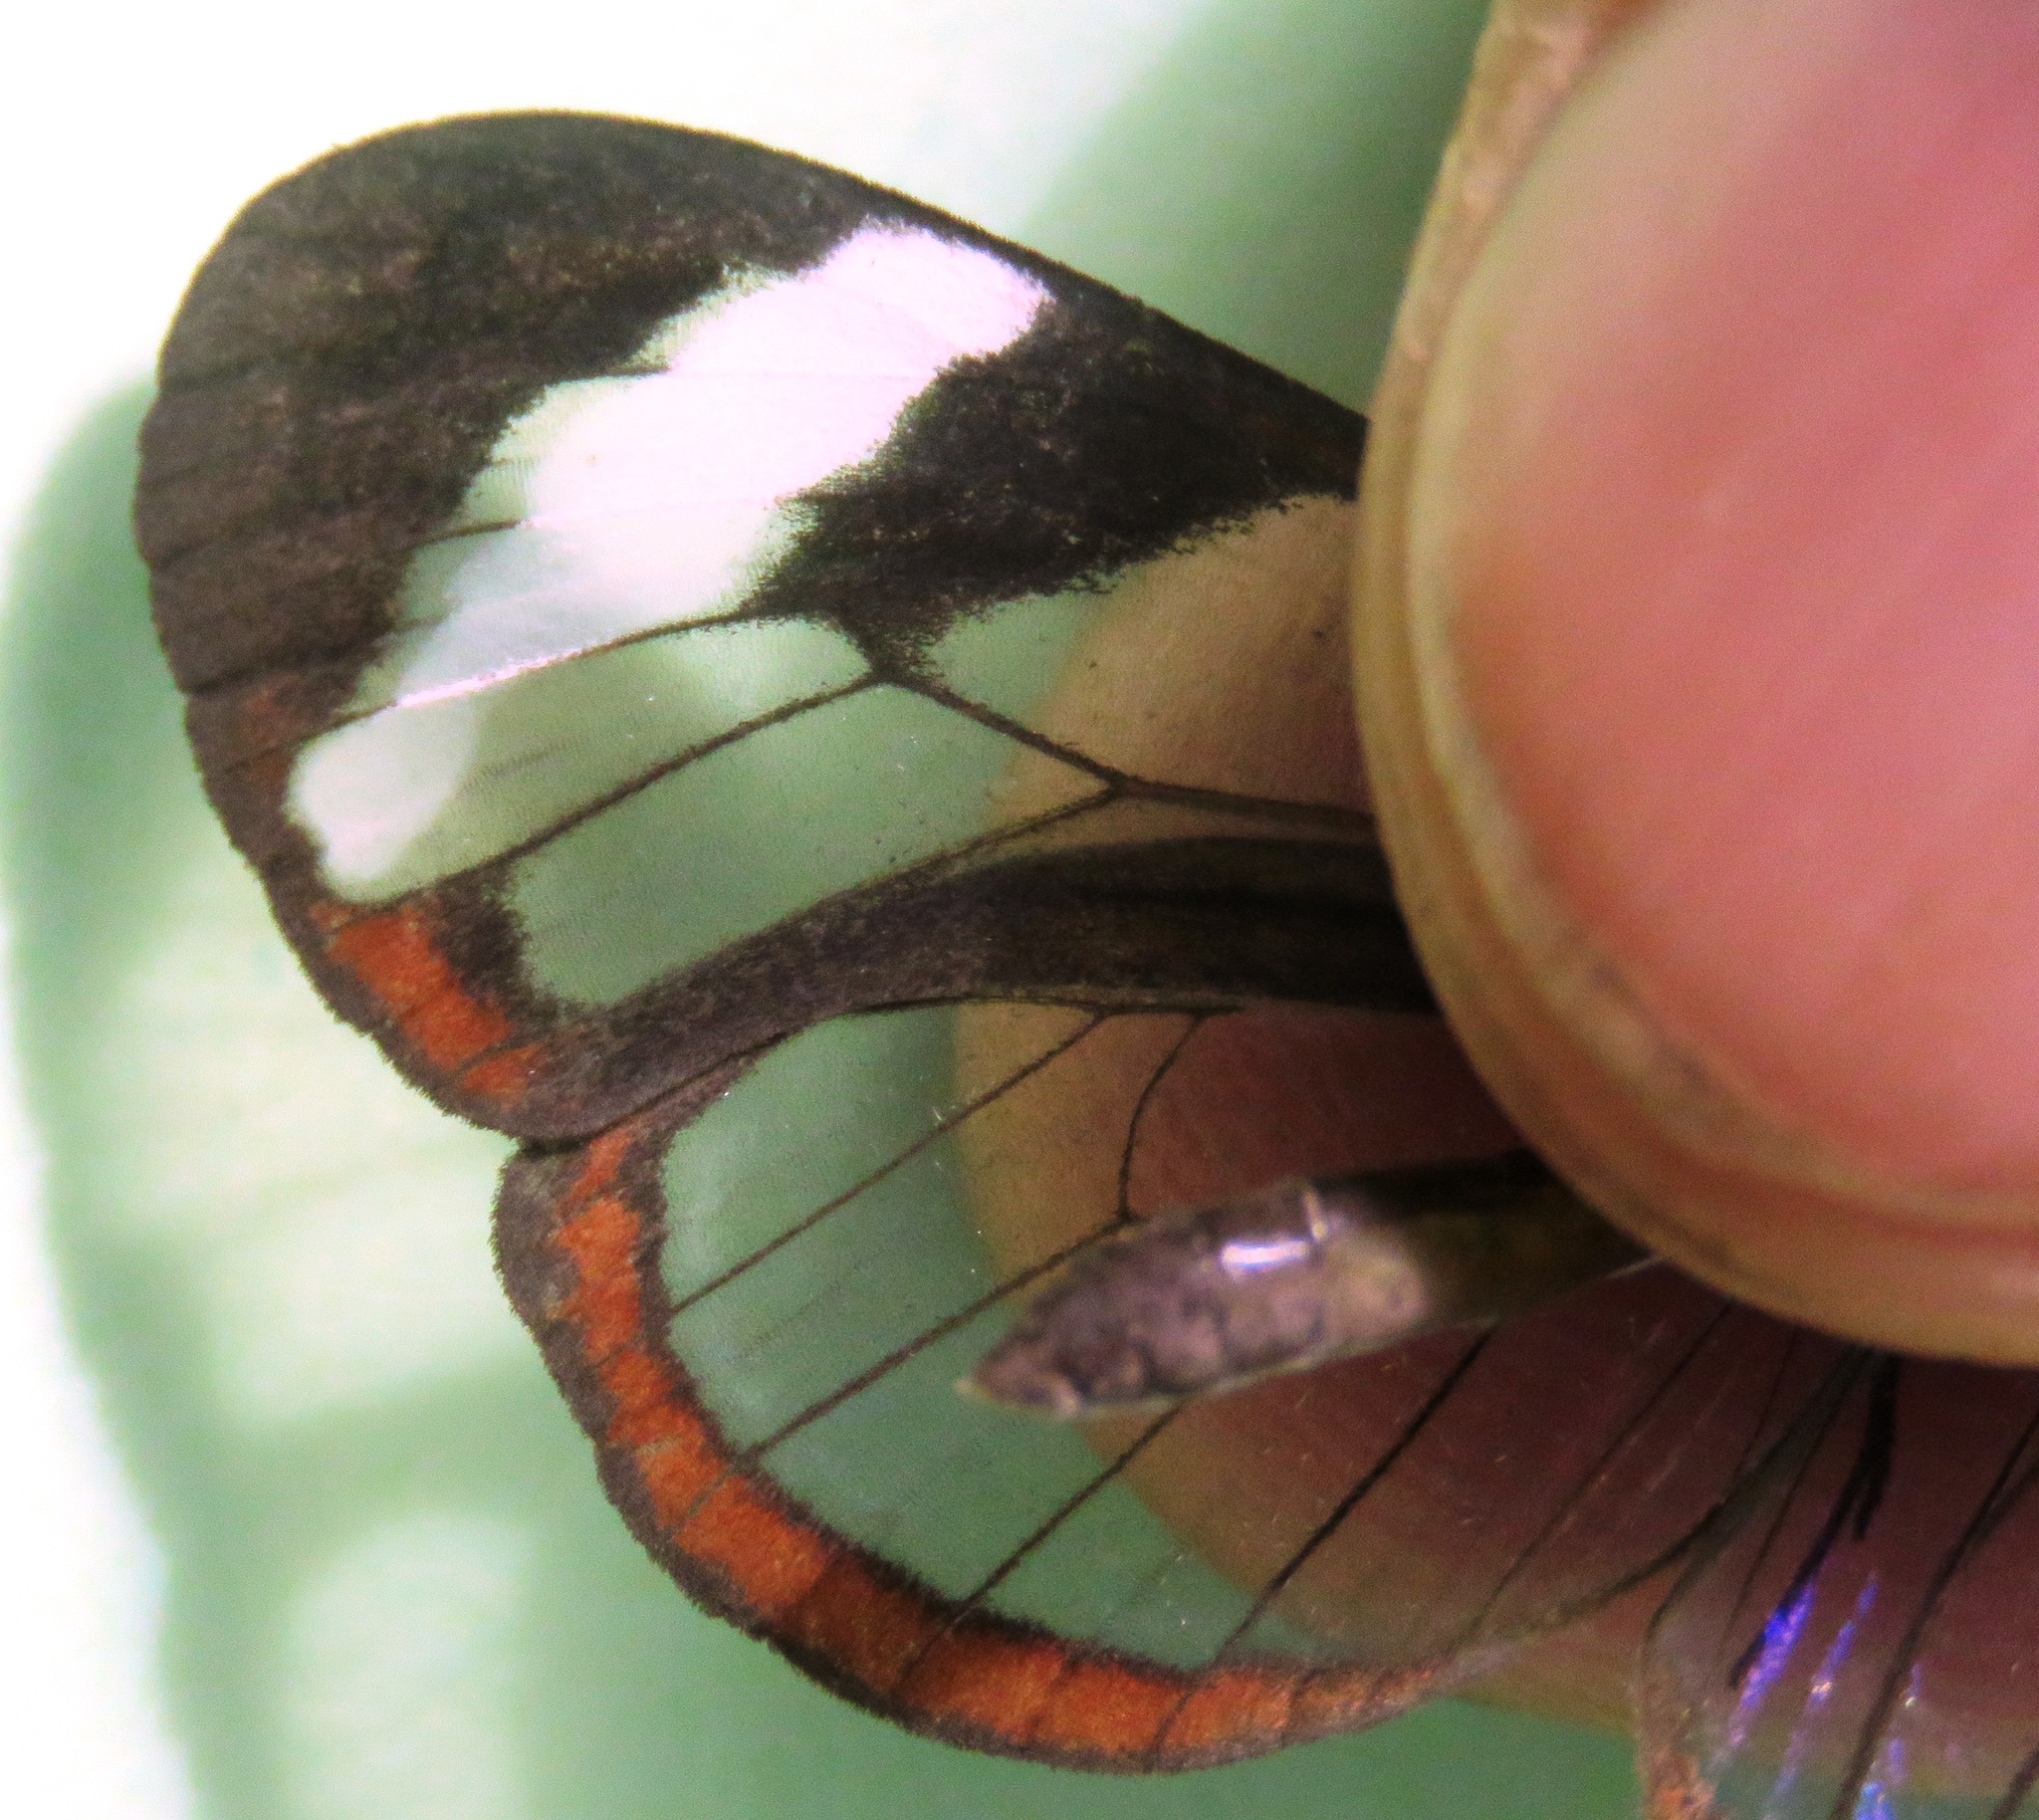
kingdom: Animalia
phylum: Arthropoda
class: Insecta
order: Lepidoptera
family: Nymphalidae
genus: Oleria
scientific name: Oleria paula
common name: Paula's clearwing
